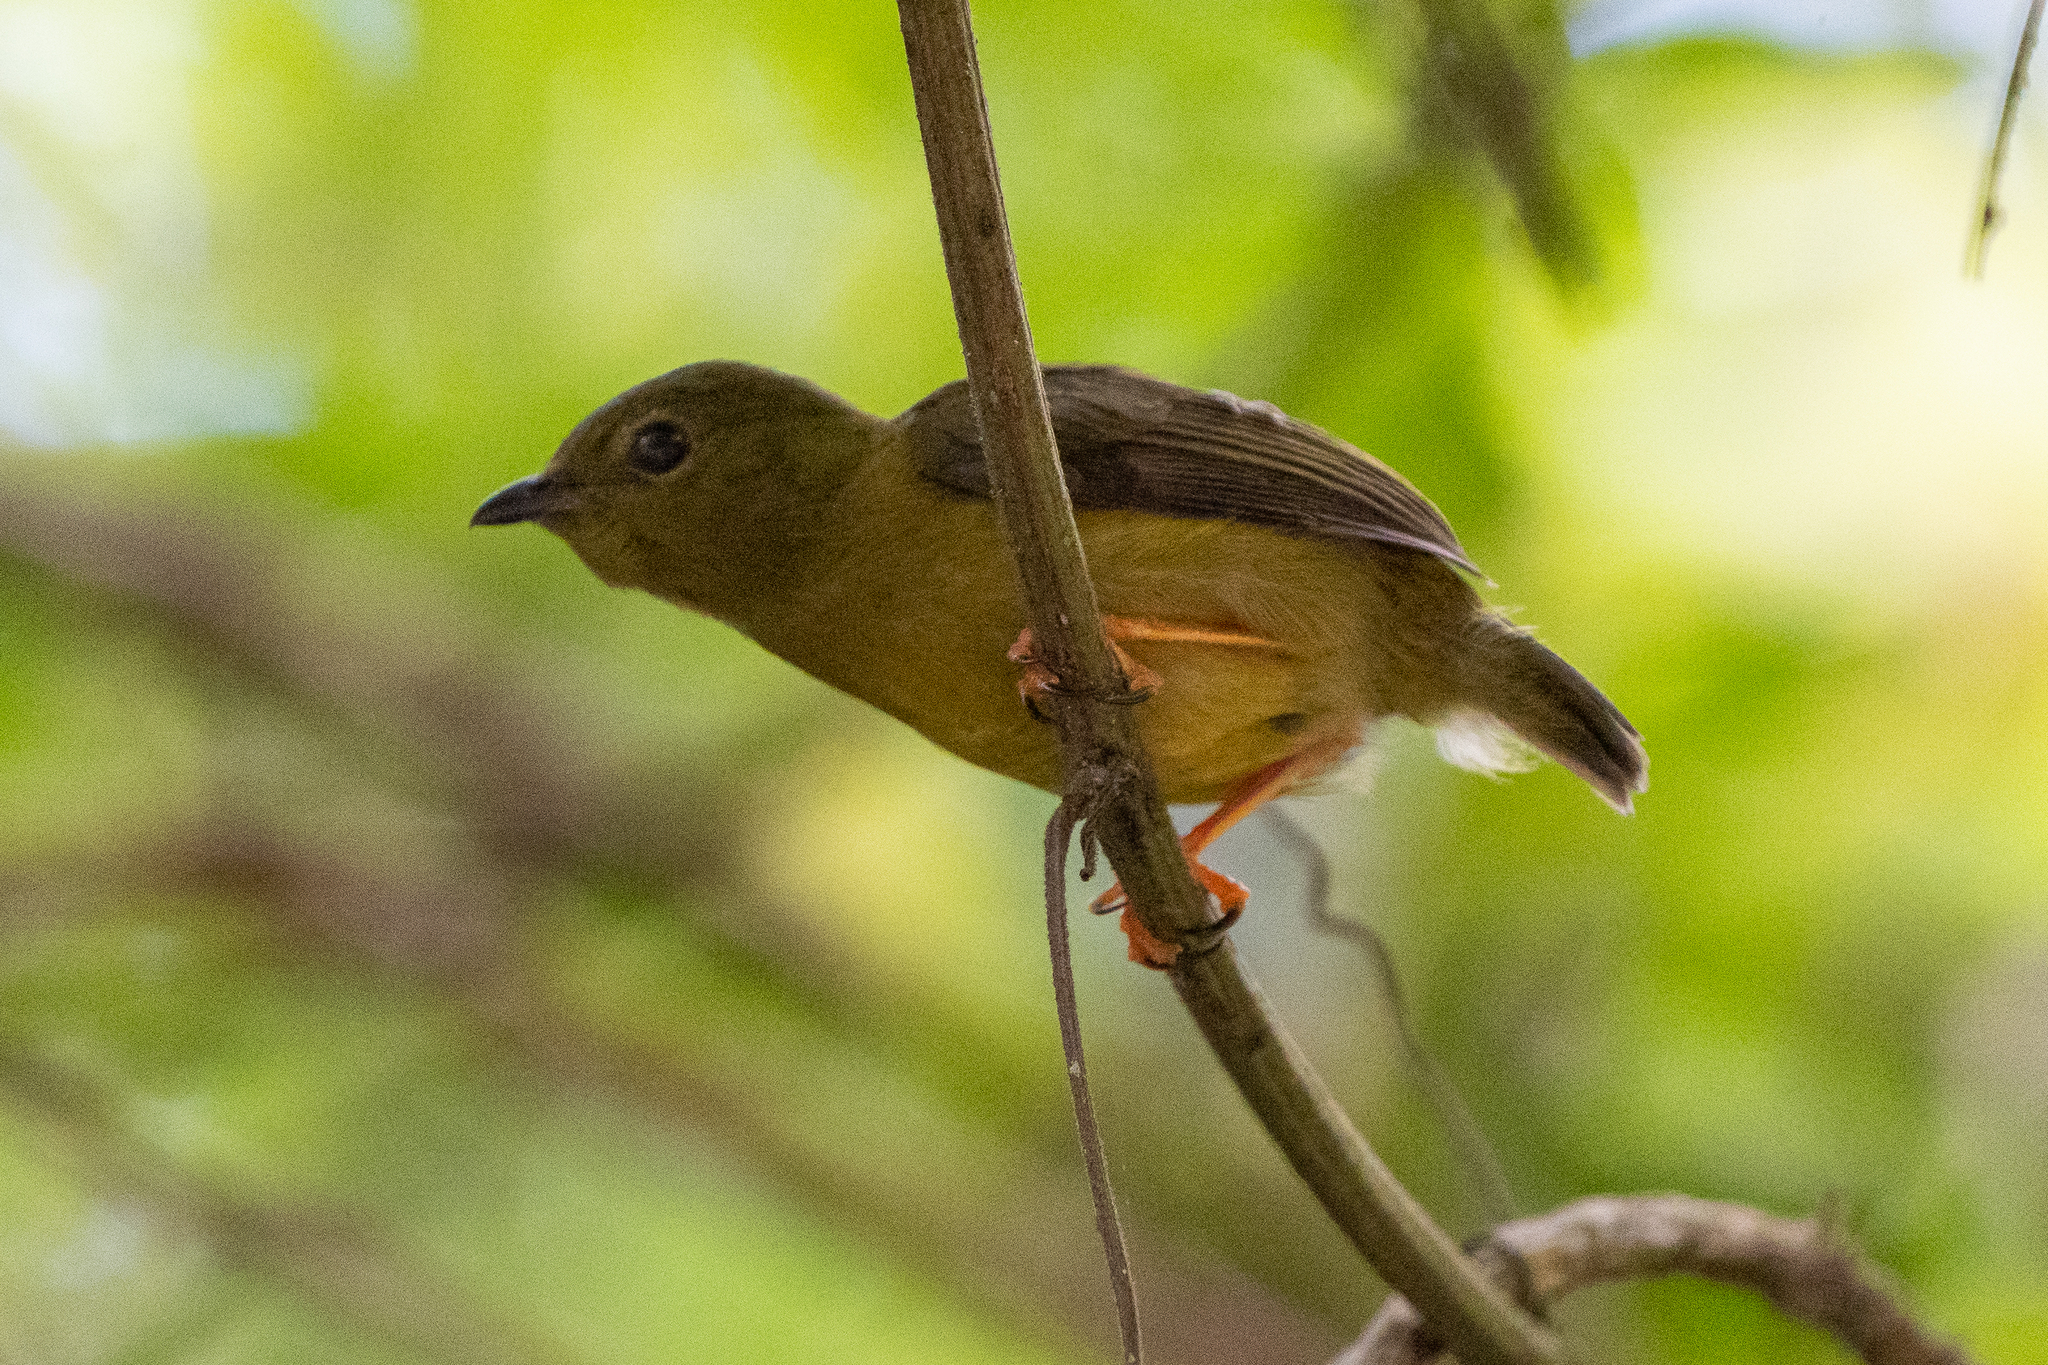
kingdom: Animalia
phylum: Chordata
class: Aves
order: Passeriformes
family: Pipridae
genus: Manacus
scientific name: Manacus vitellinus
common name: Golden-collared manakin
